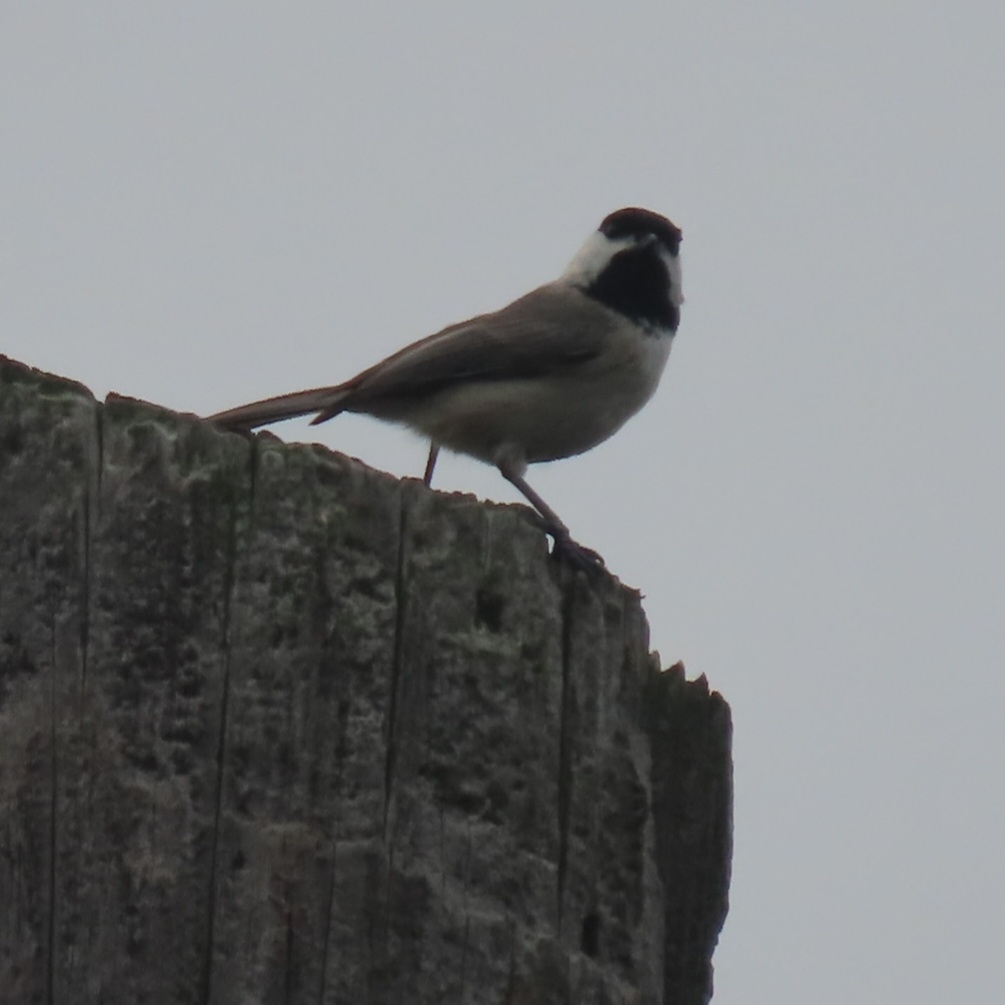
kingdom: Animalia
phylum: Chordata
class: Aves
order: Passeriformes
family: Paridae
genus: Poecile
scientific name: Poecile carolinensis
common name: Carolina chickadee
